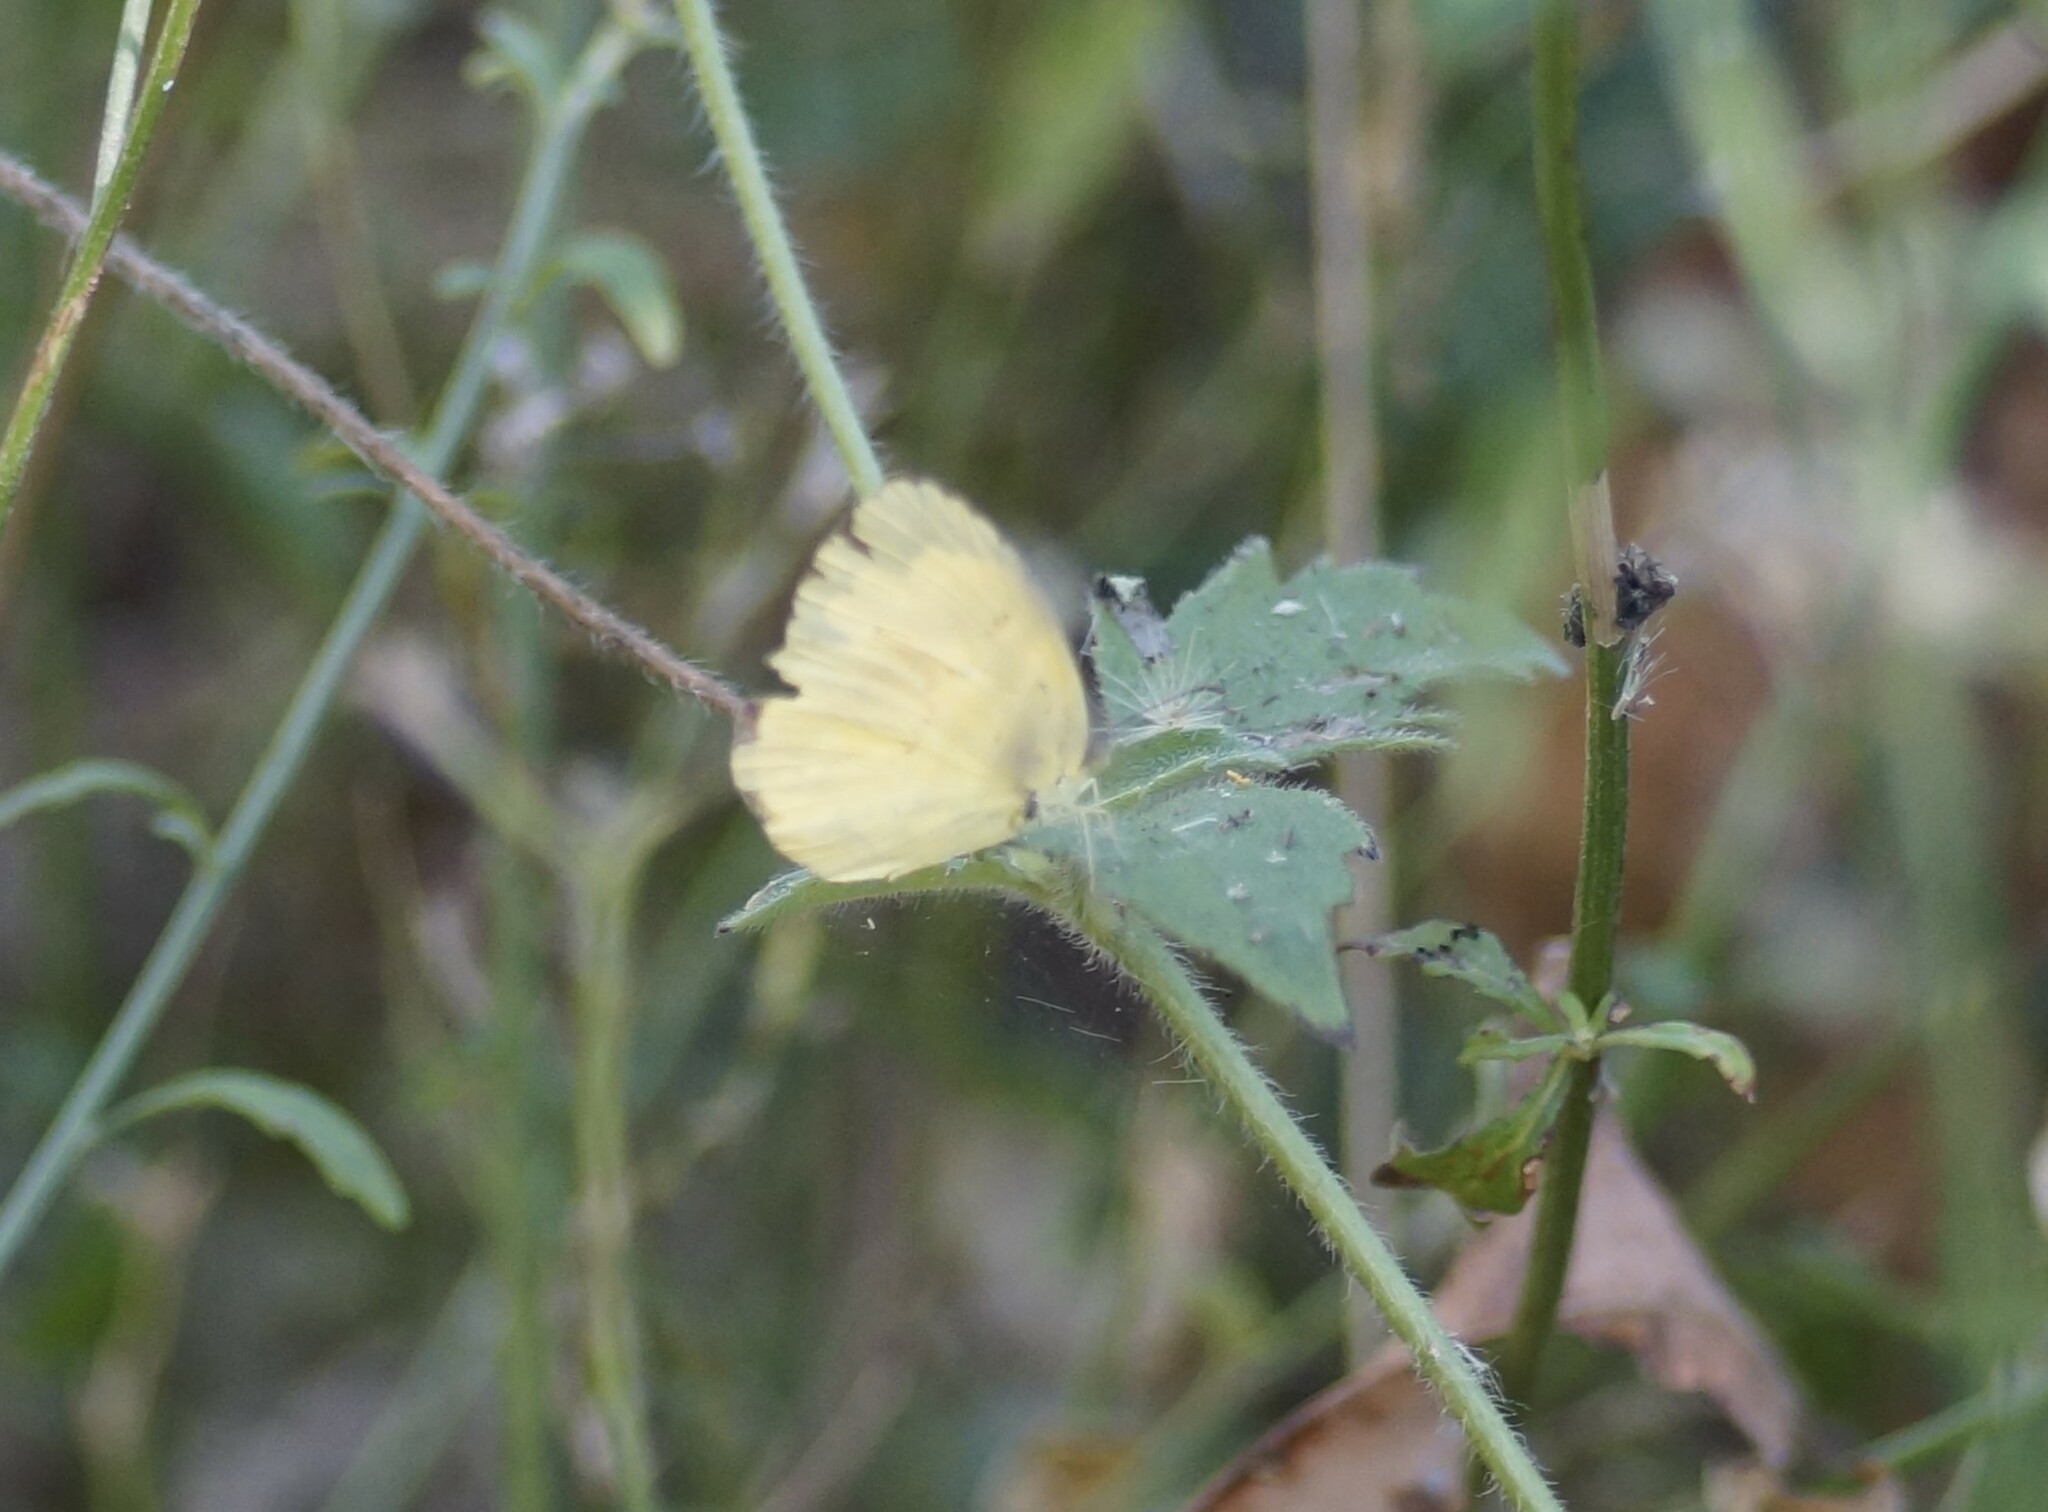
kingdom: Animalia
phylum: Arthropoda
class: Insecta
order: Lepidoptera
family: Pieridae
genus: Eurema
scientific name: Eurema hecabe
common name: Pale grass yellow
